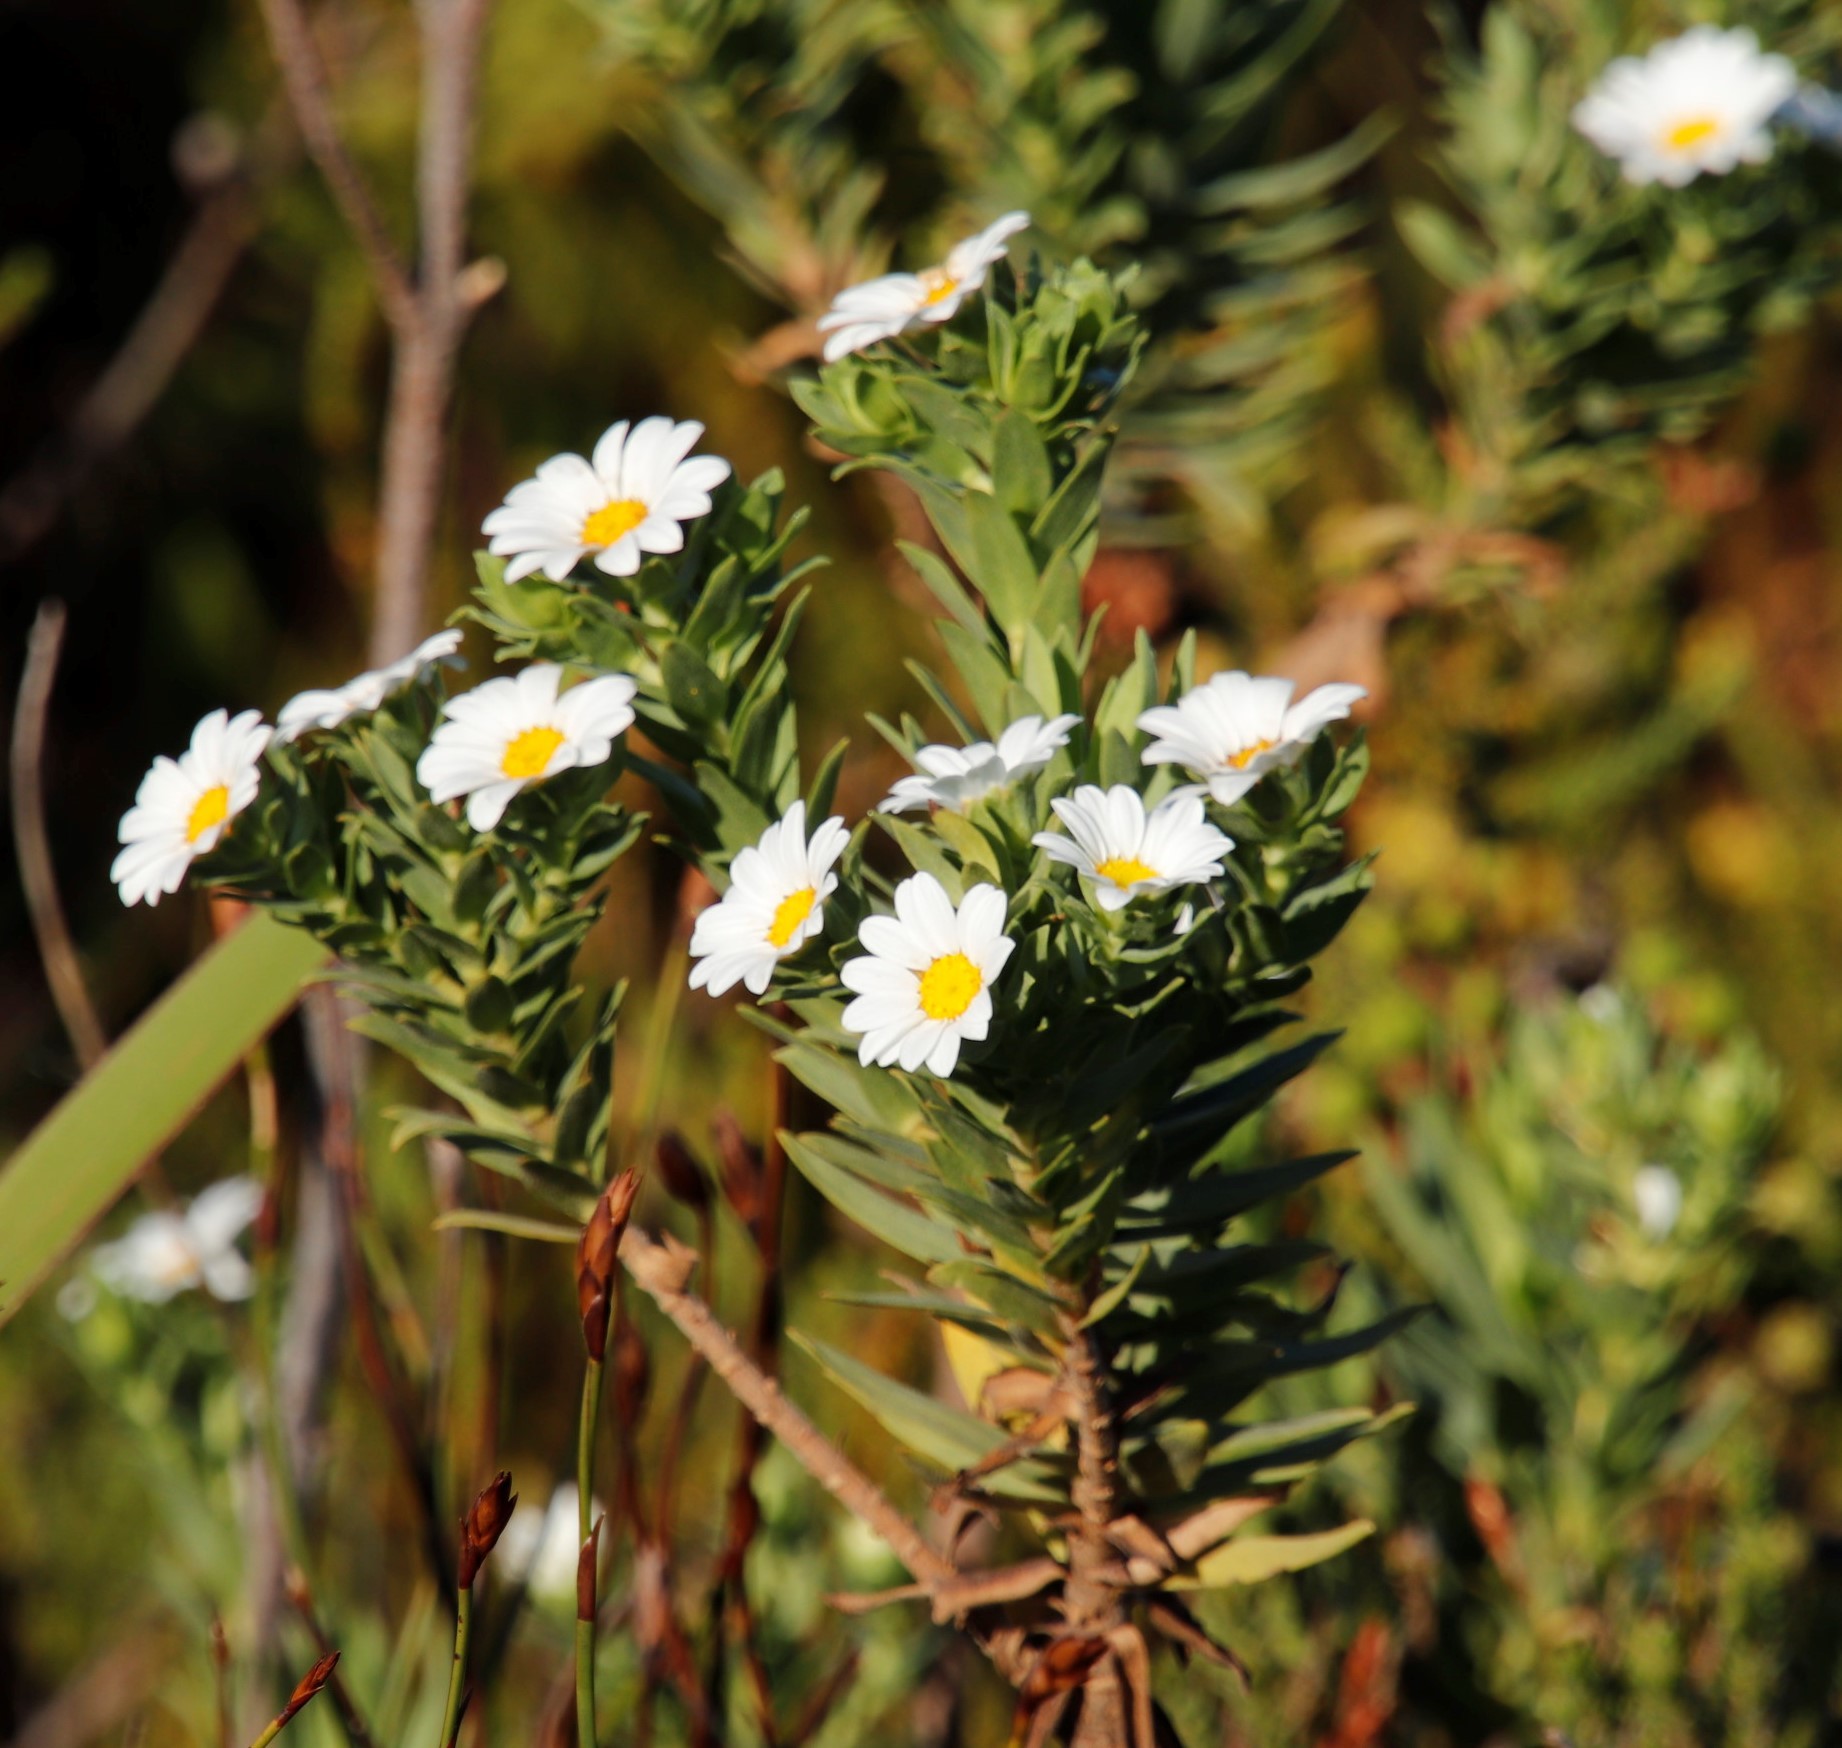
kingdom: Plantae
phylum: Tracheophyta
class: Magnoliopsida
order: Asterales
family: Asteraceae
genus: Osmitopsis
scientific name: Osmitopsis asteriscoides
